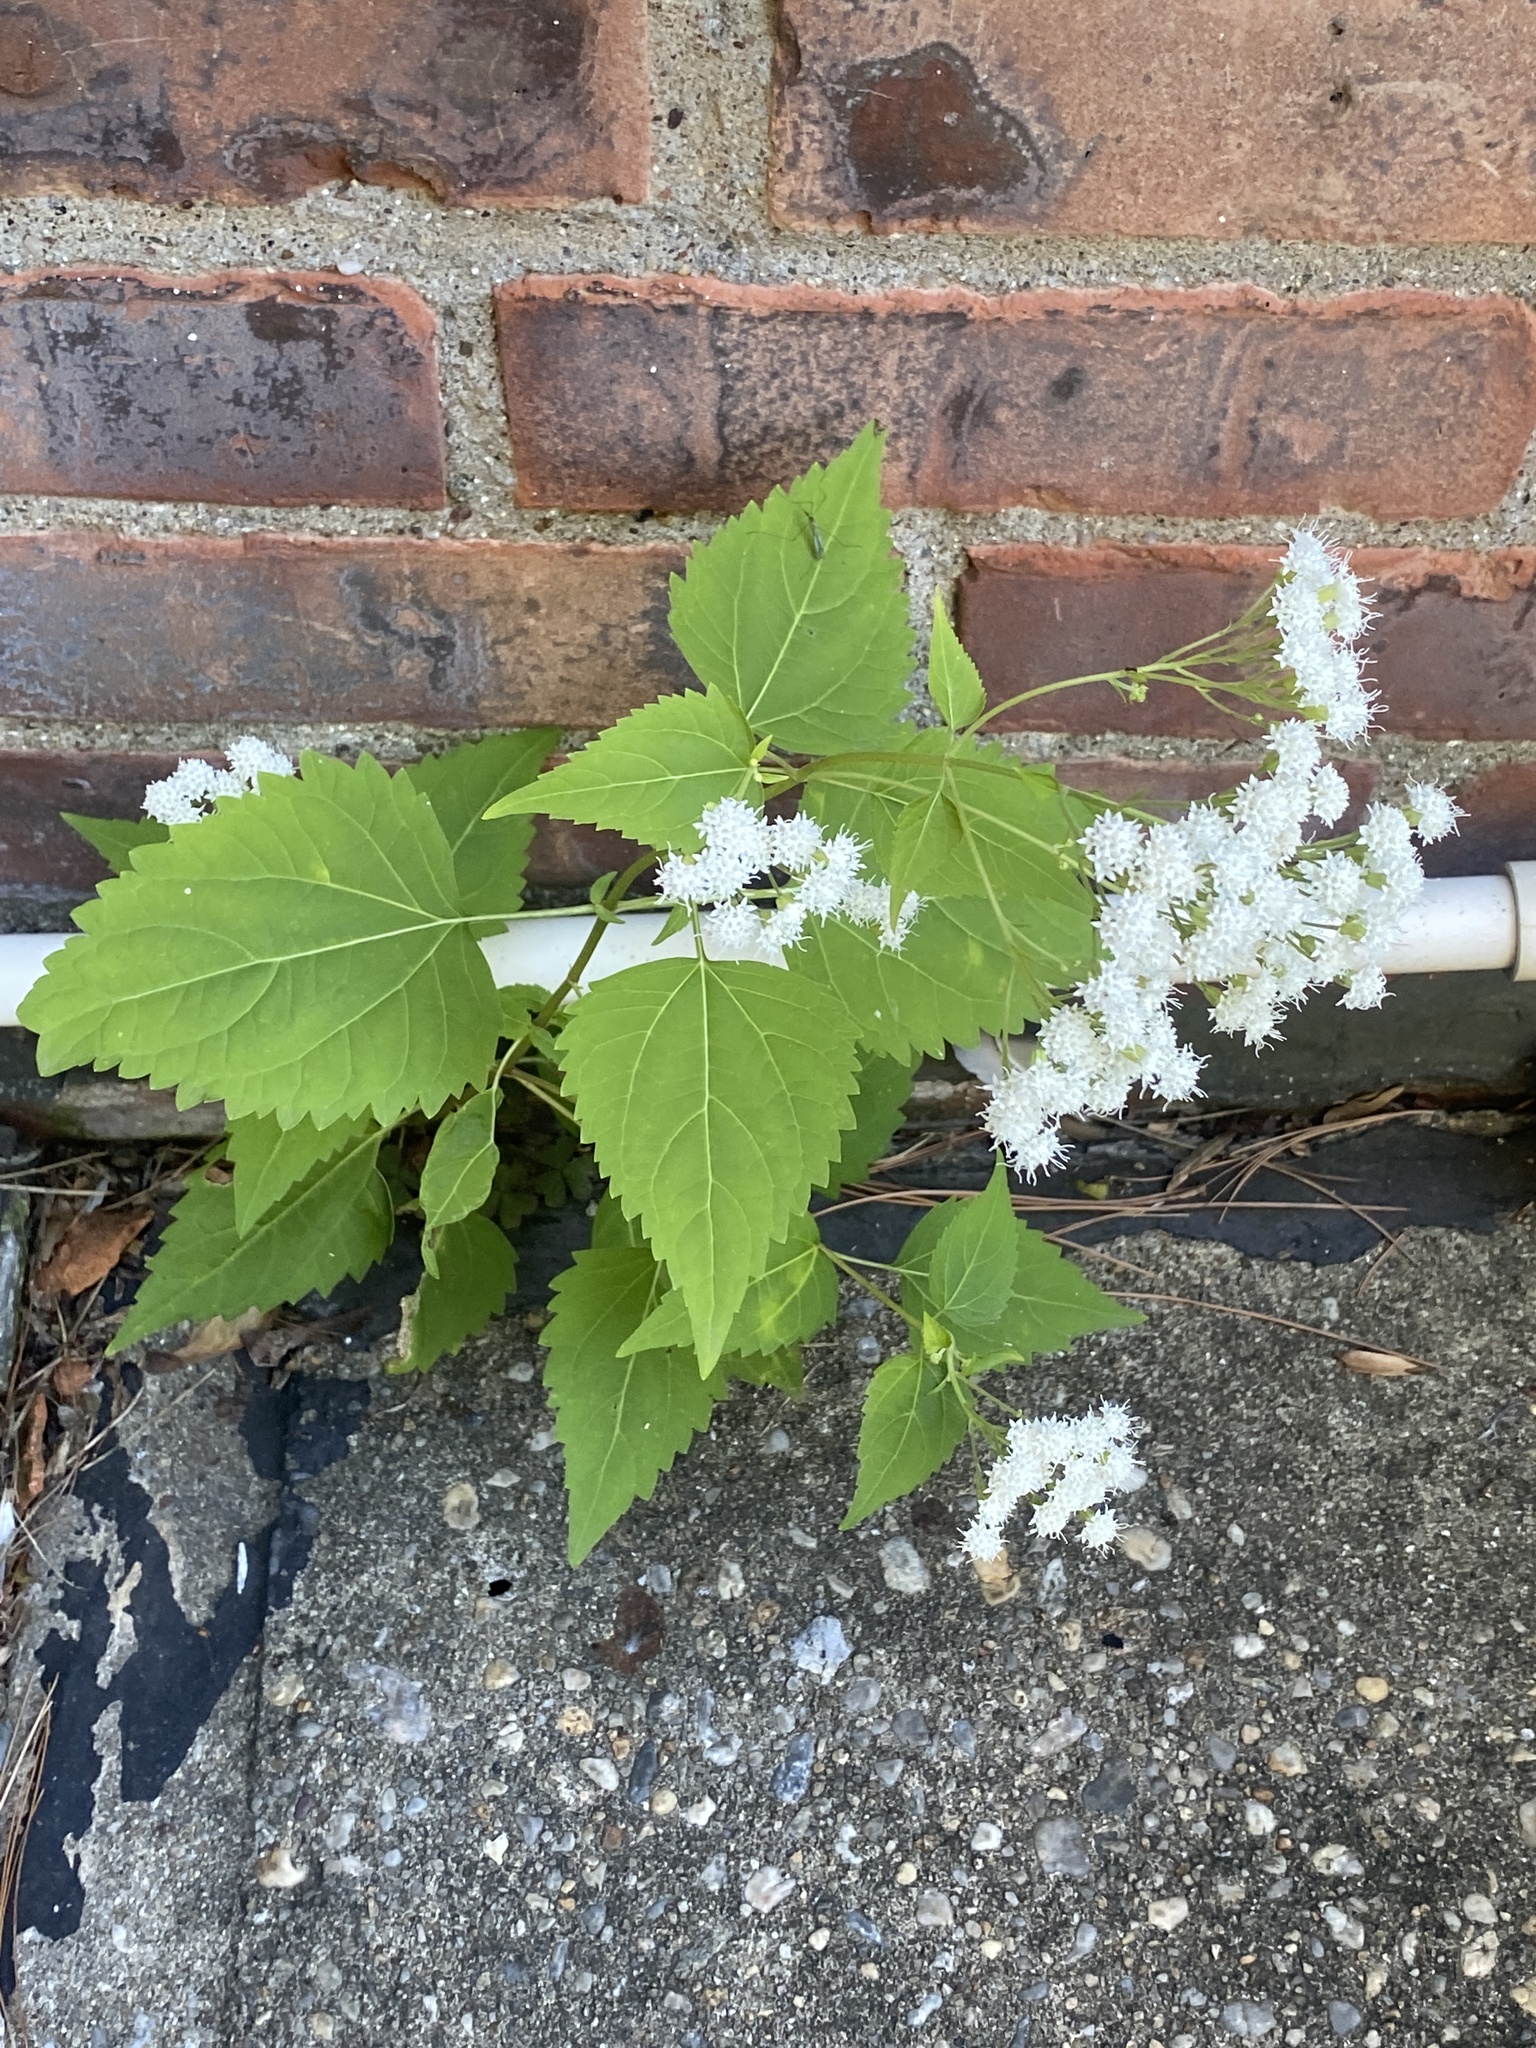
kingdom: Plantae
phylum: Tracheophyta
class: Magnoliopsida
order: Asterales
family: Asteraceae
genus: Ageratina
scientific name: Ageratina altissima
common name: White snakeroot
